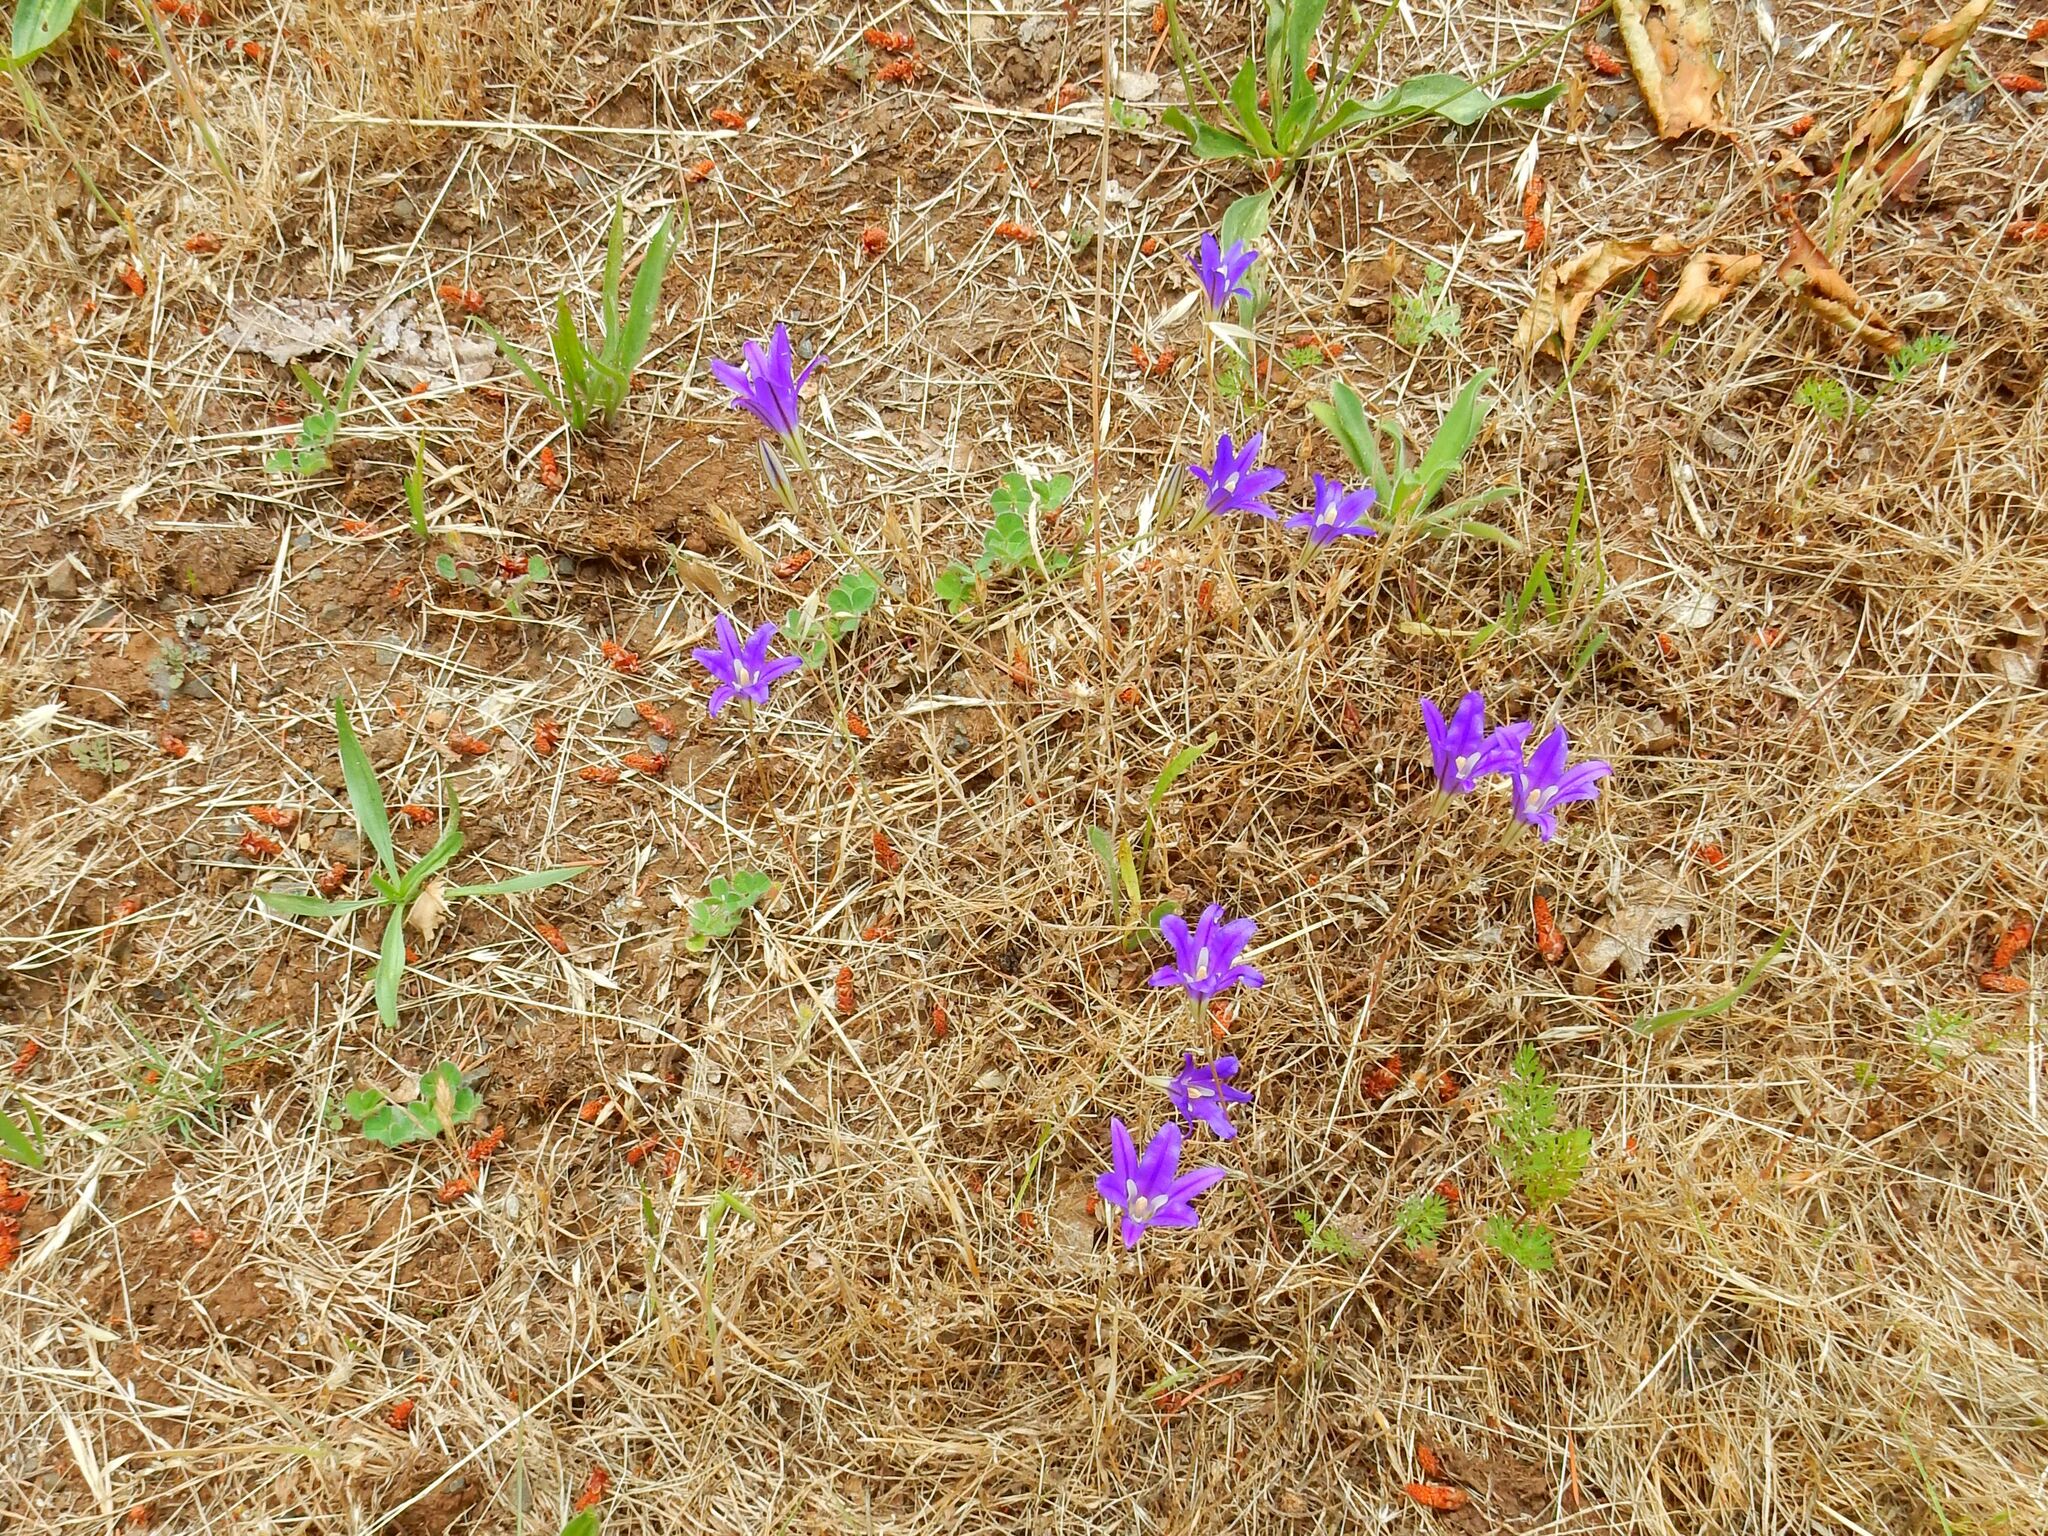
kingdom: Plantae
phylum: Tracheophyta
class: Liliopsida
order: Asparagales
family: Asparagaceae
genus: Brodiaea
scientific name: Brodiaea elegans
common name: Elegant cluster-lily
